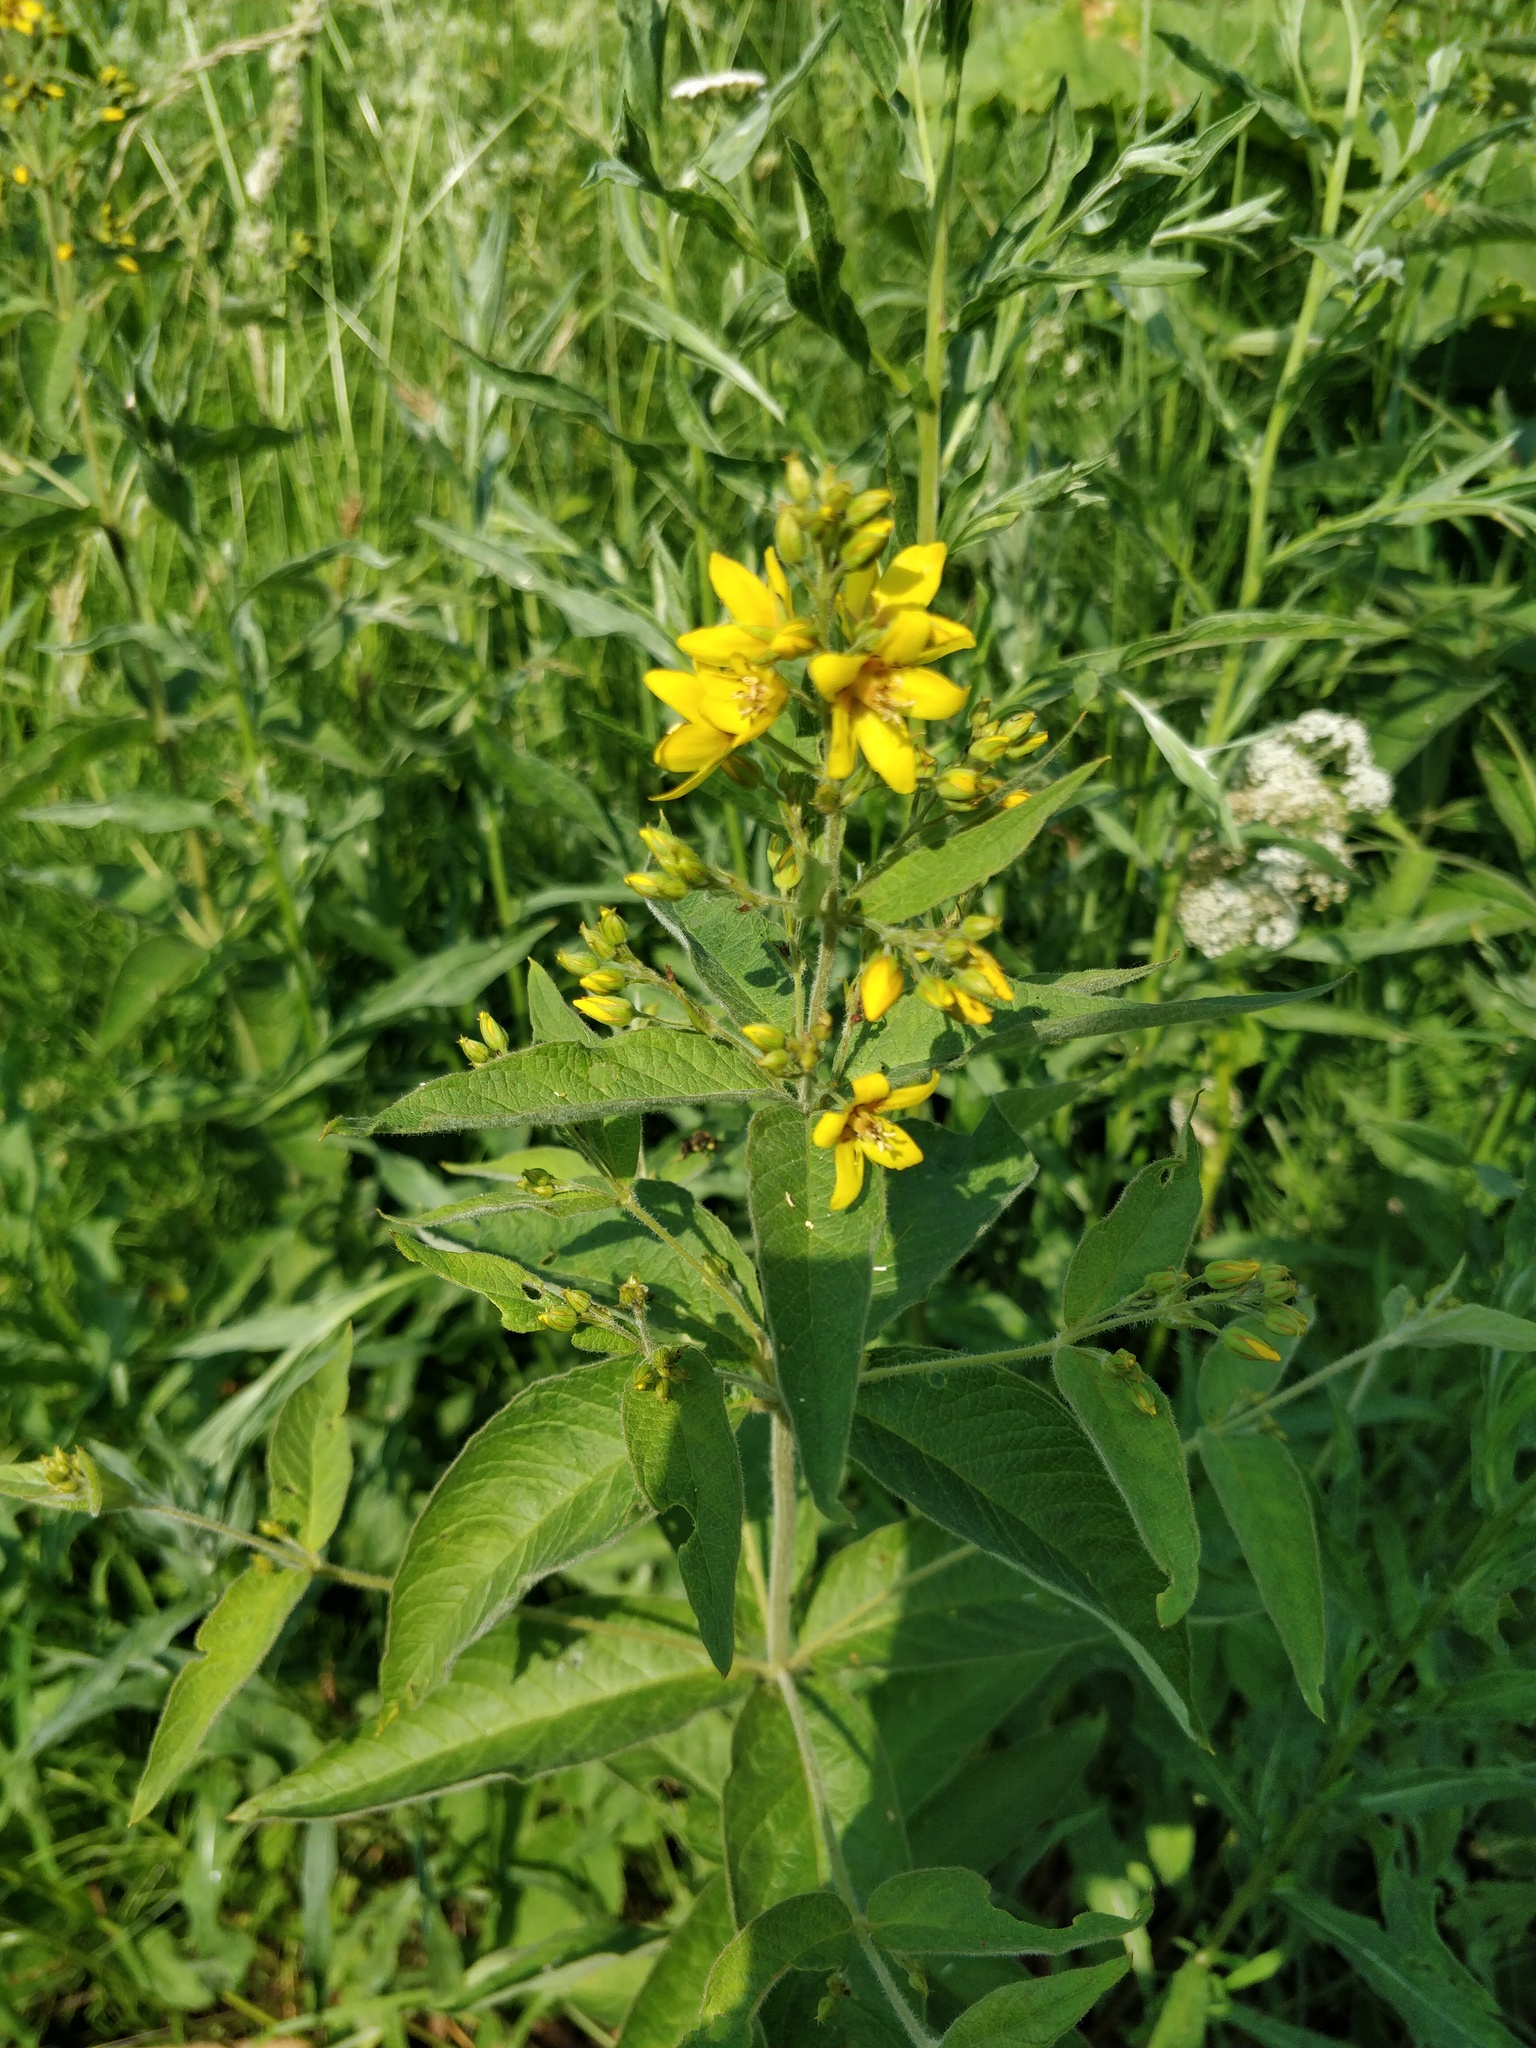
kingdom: Plantae
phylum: Tracheophyta
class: Magnoliopsida
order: Ericales
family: Primulaceae
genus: Lysimachia
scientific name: Lysimachia vulgaris
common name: Yellow loosestrife
